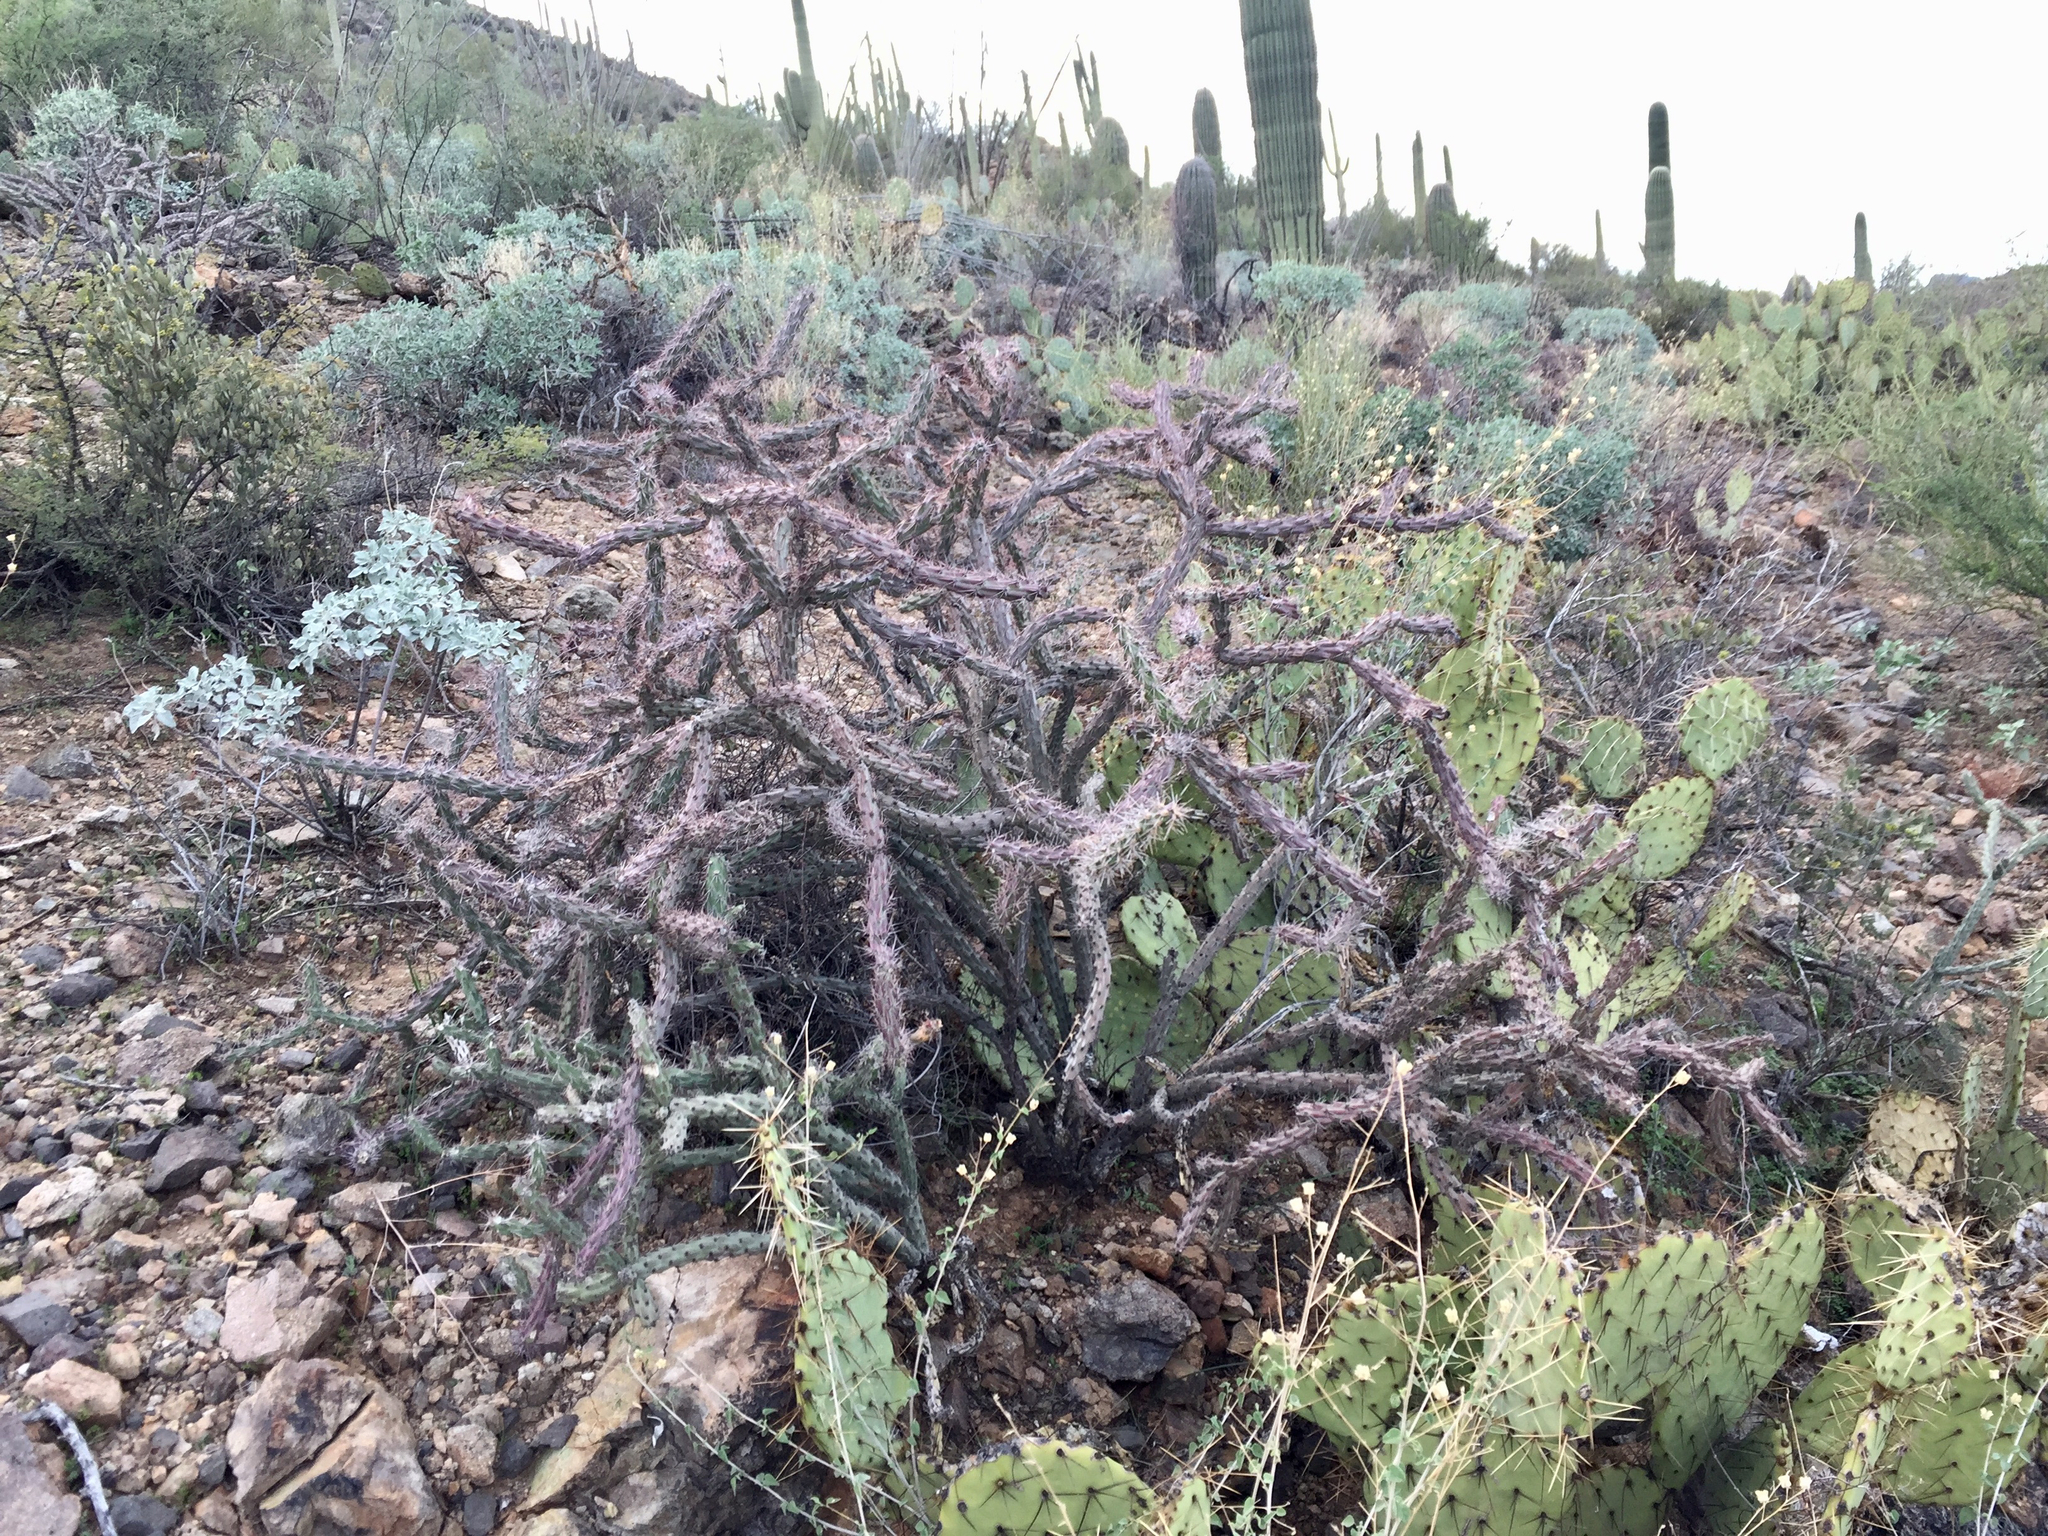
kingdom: Plantae
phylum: Tracheophyta
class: Magnoliopsida
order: Caryophyllales
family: Cactaceae
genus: Cylindropuntia
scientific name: Cylindropuntia thurberi
